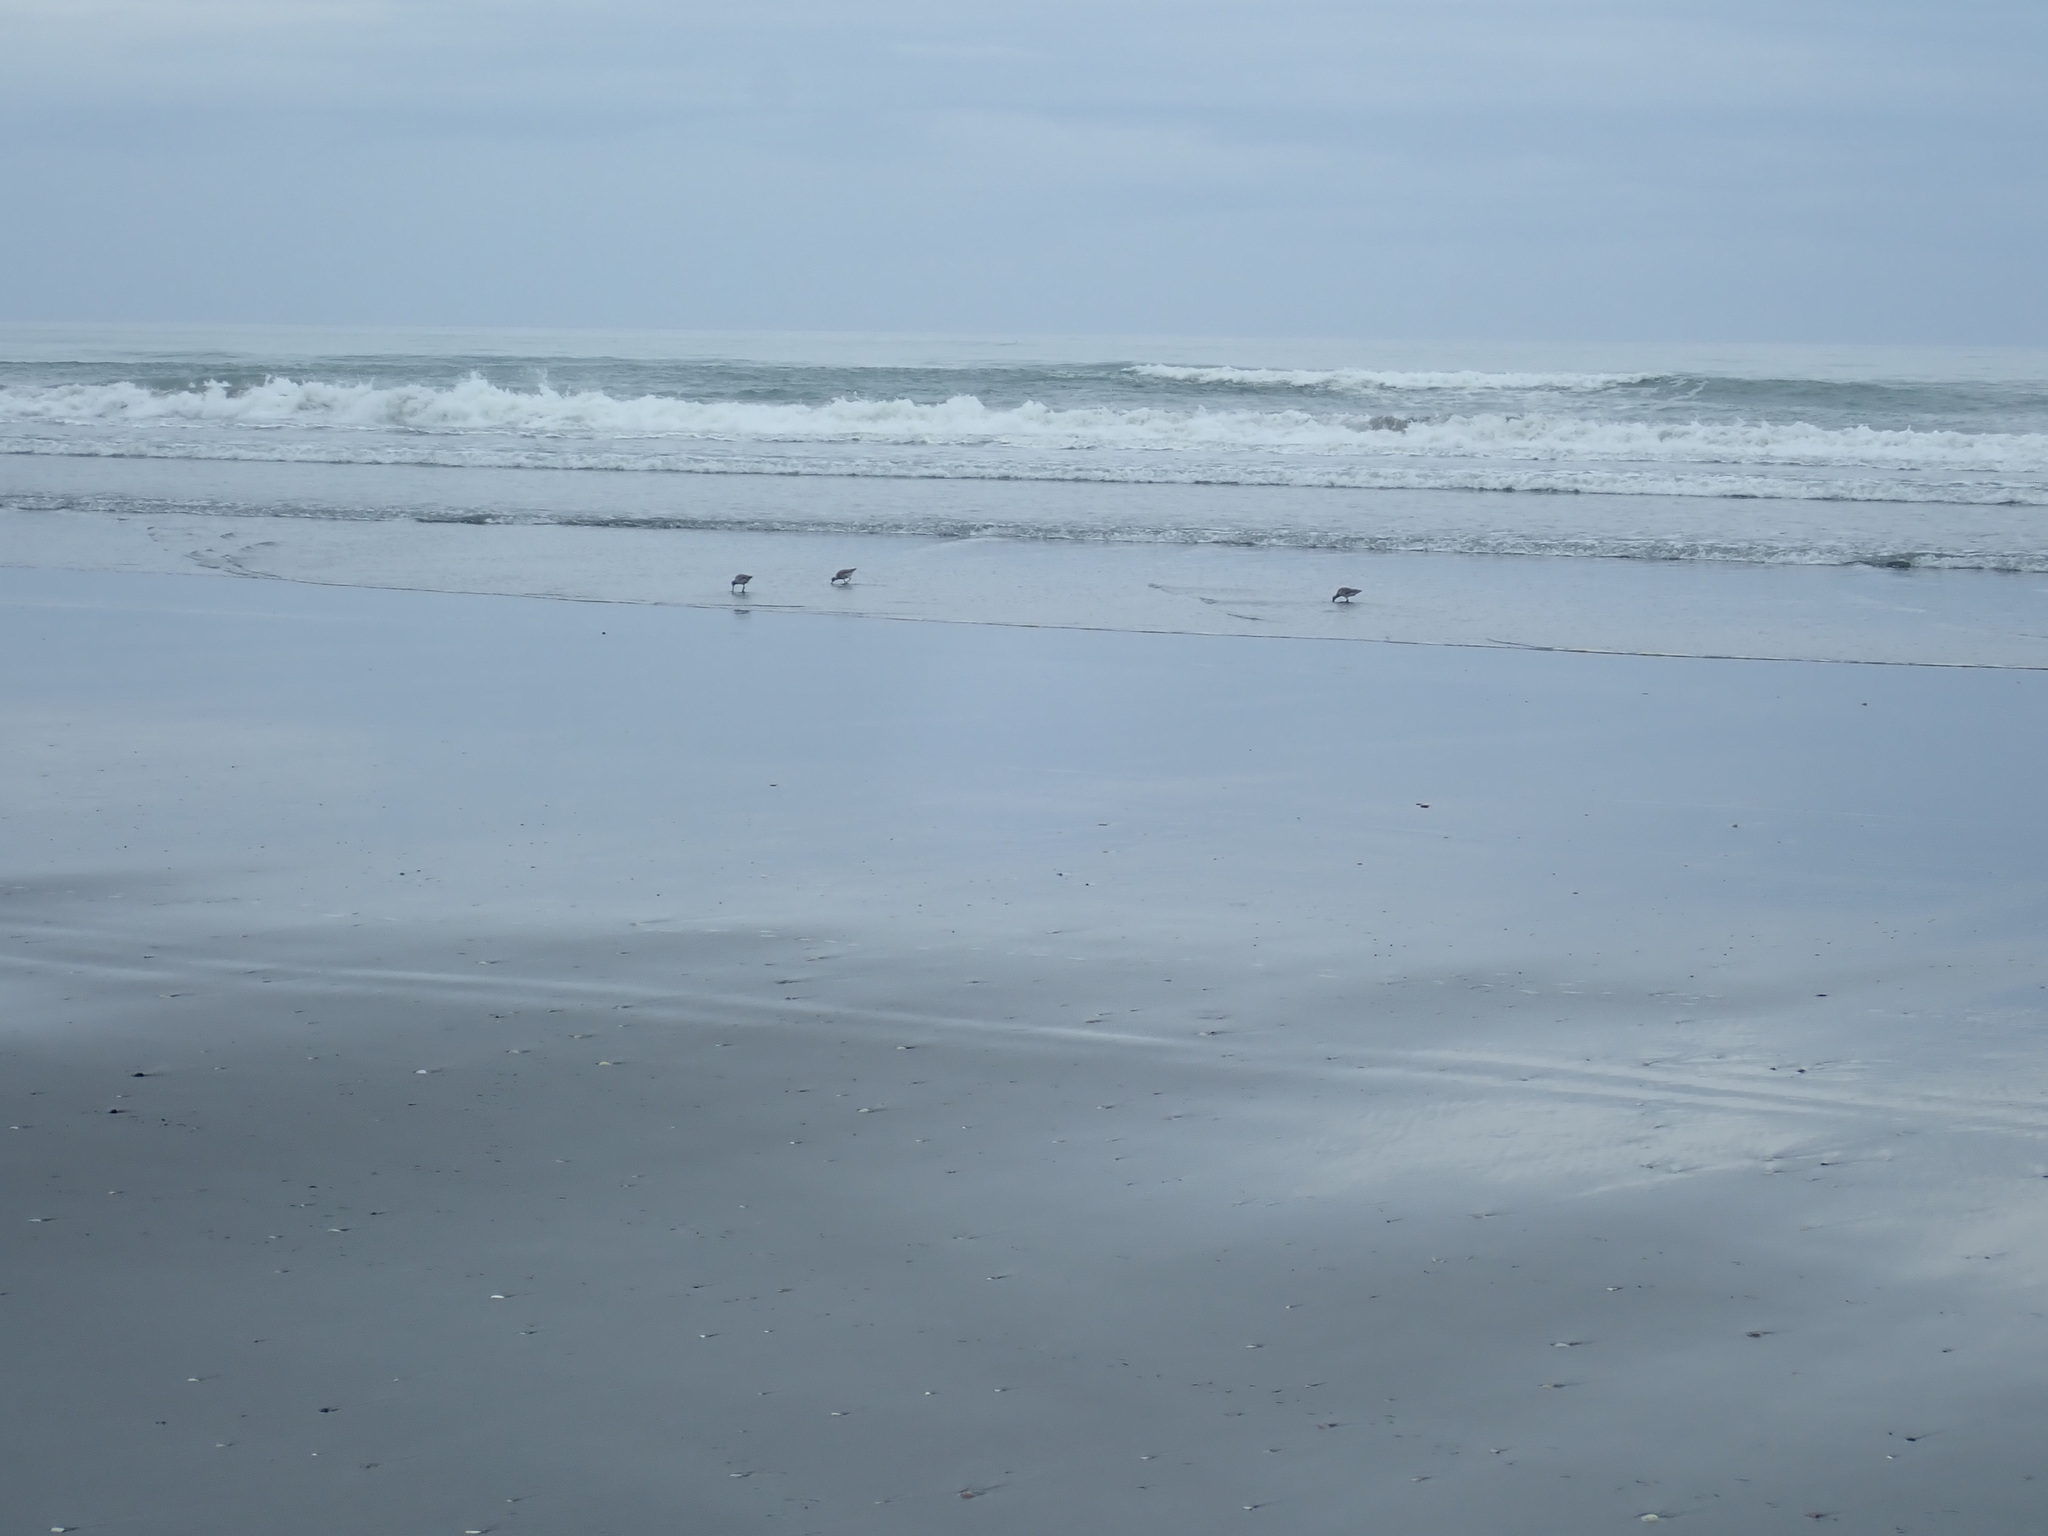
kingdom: Animalia
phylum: Chordata
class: Aves
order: Charadriiformes
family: Scolopacidae
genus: Limosa
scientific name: Limosa lapponica
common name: Bar-tailed godwit
